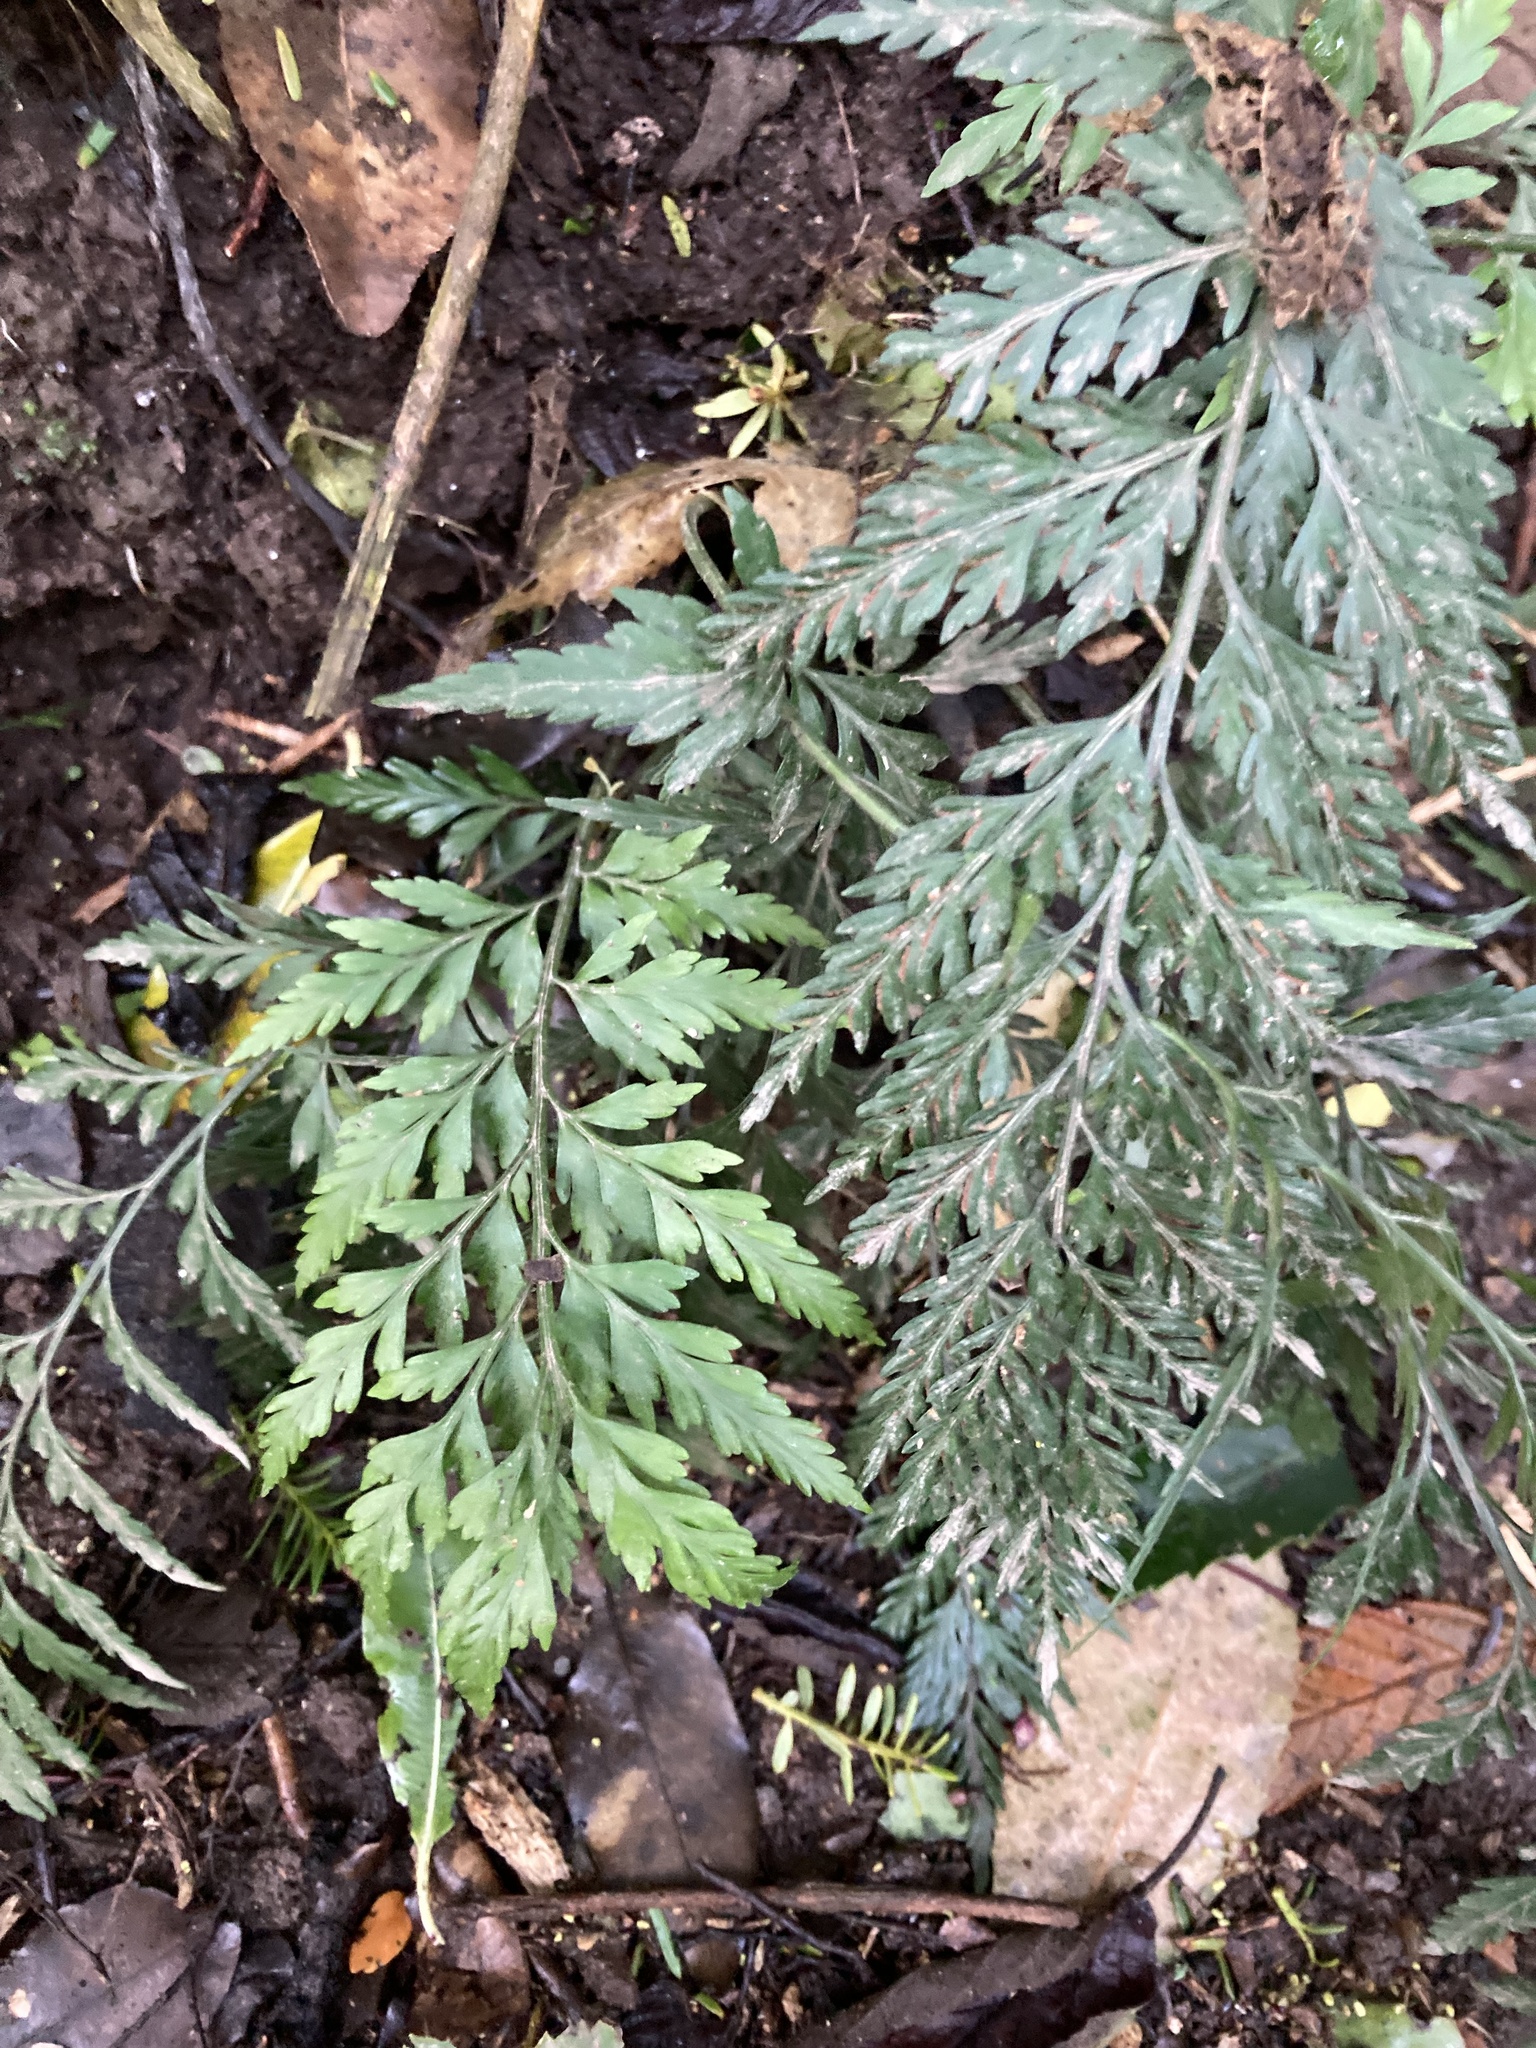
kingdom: Plantae
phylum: Tracheophyta
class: Polypodiopsida
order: Polypodiales
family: Aspleniaceae
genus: Asplenium
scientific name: Asplenium
